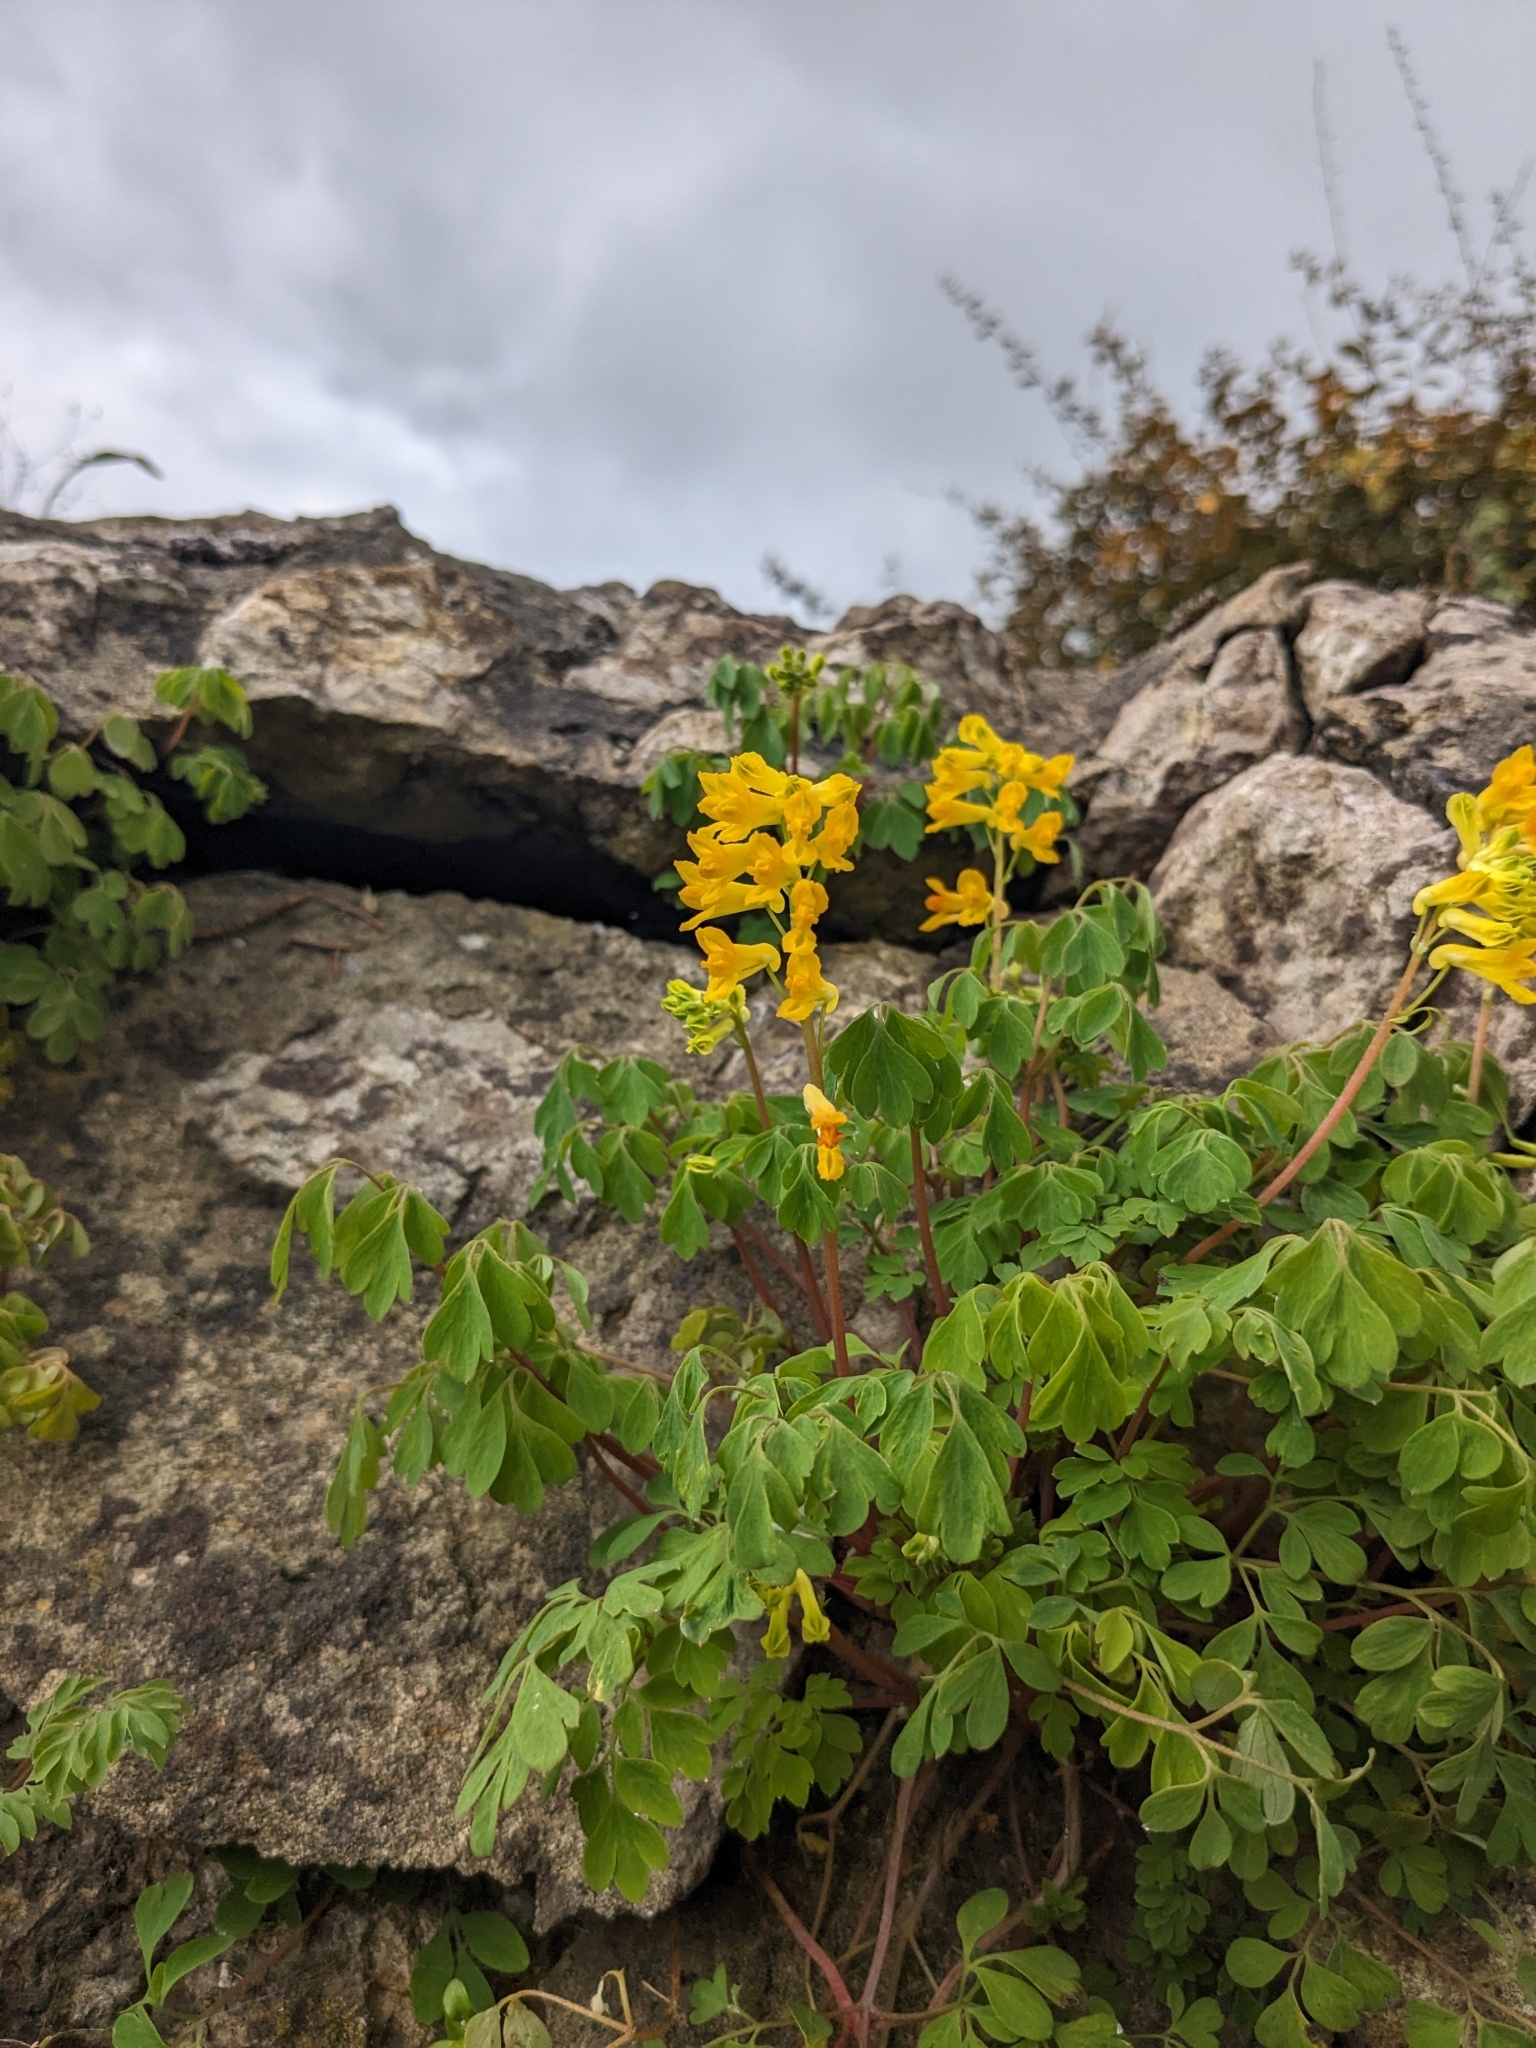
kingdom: Plantae
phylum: Tracheophyta
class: Magnoliopsida
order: Ranunculales
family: Papaveraceae
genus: Pseudofumaria
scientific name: Pseudofumaria lutea
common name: Yellow corydalis
